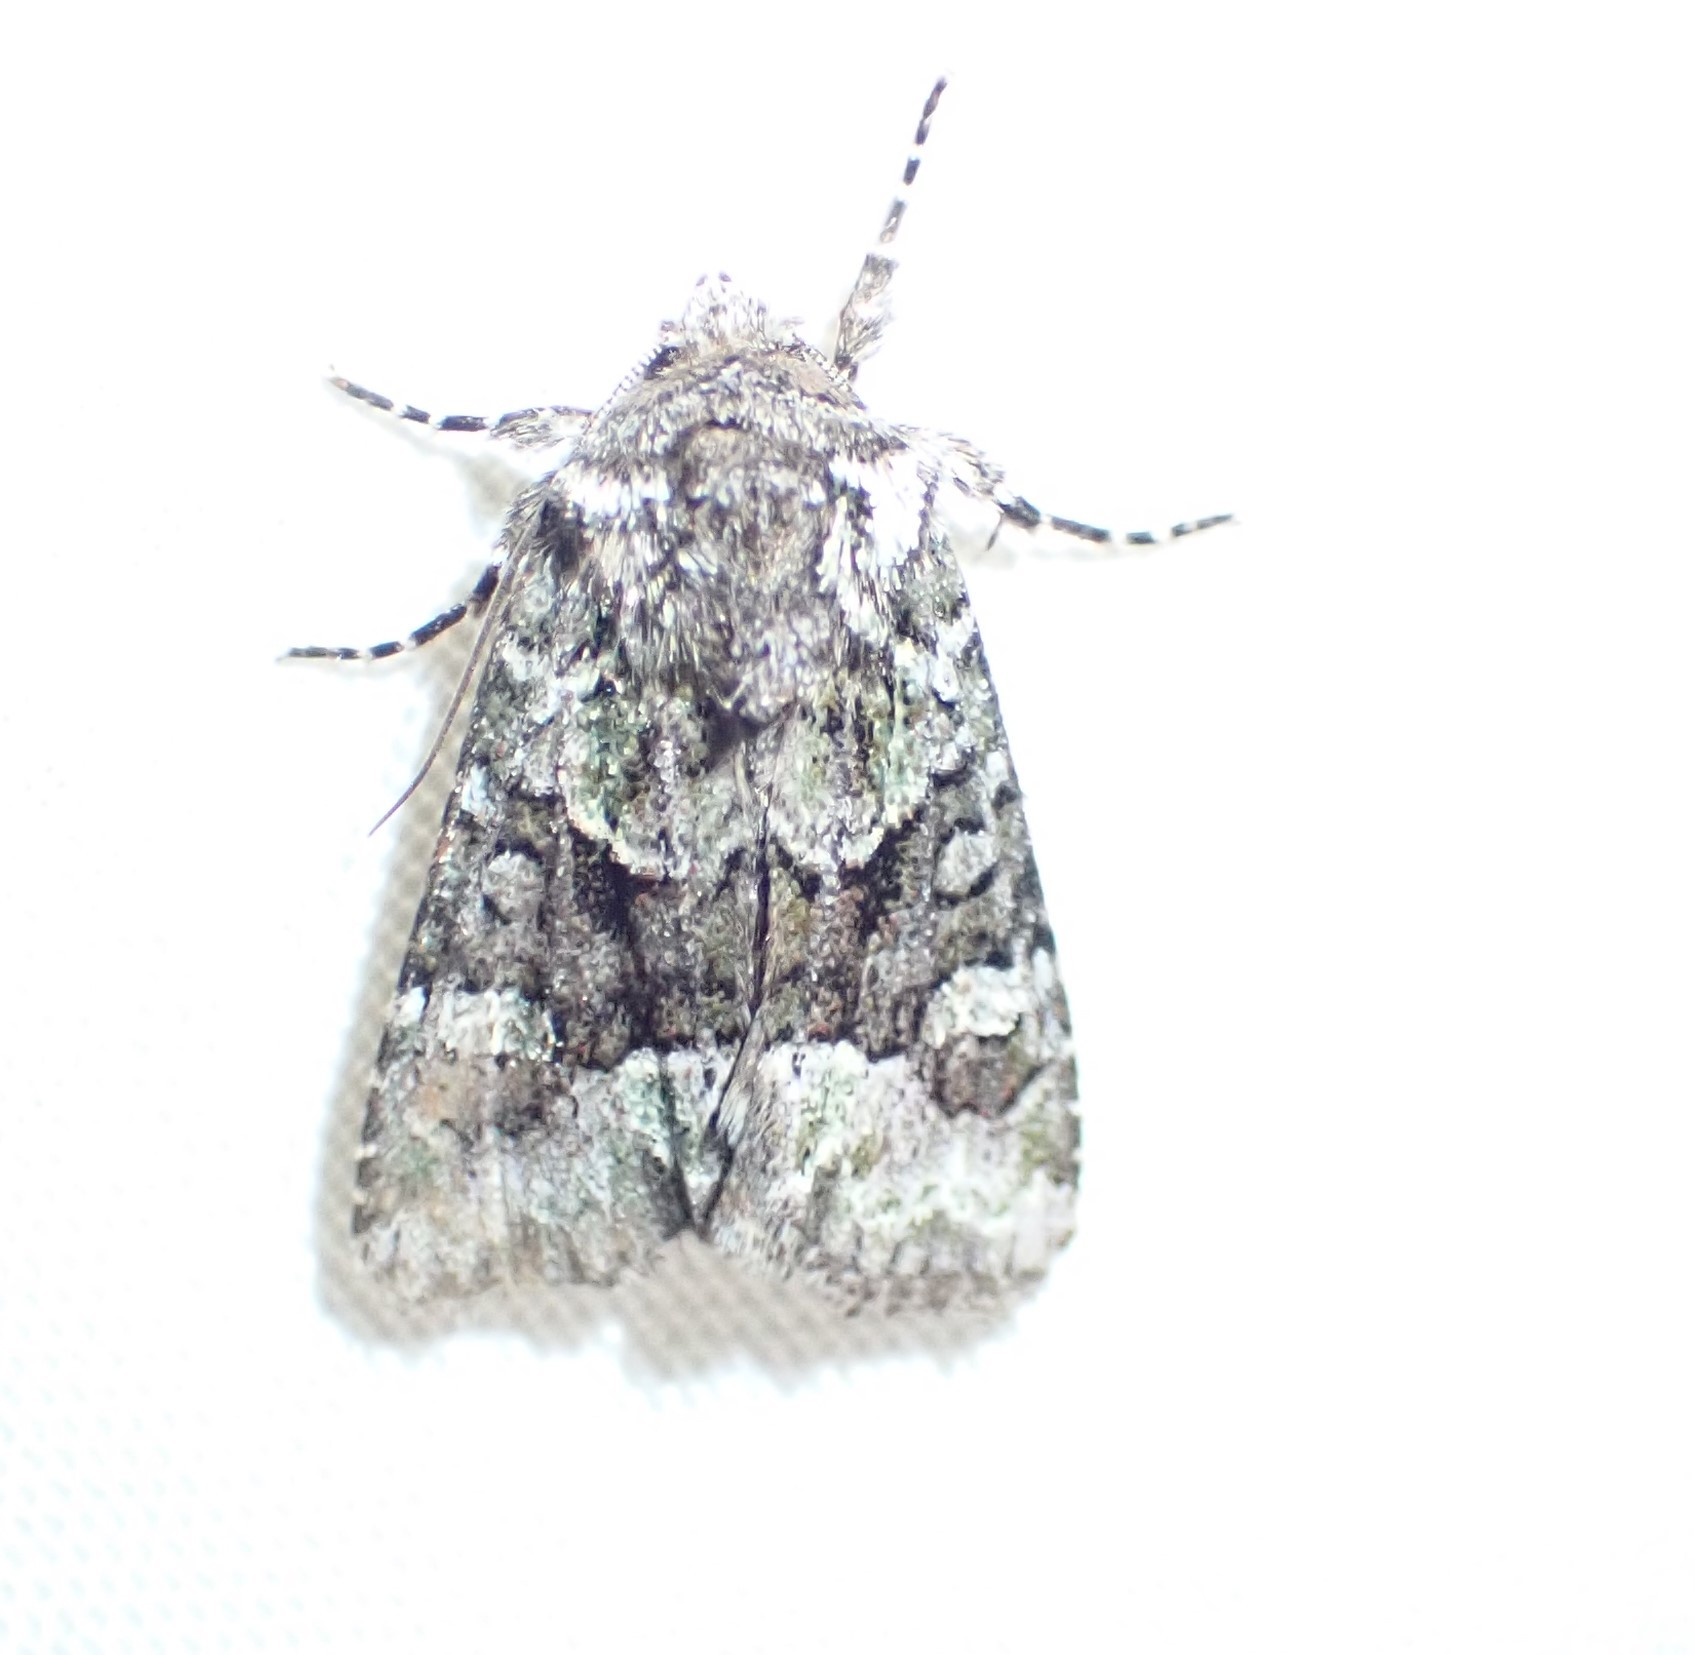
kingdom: Animalia
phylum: Arthropoda
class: Insecta
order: Lepidoptera
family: Noctuidae
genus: Lacinipolia
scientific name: Lacinipolia cuneata
